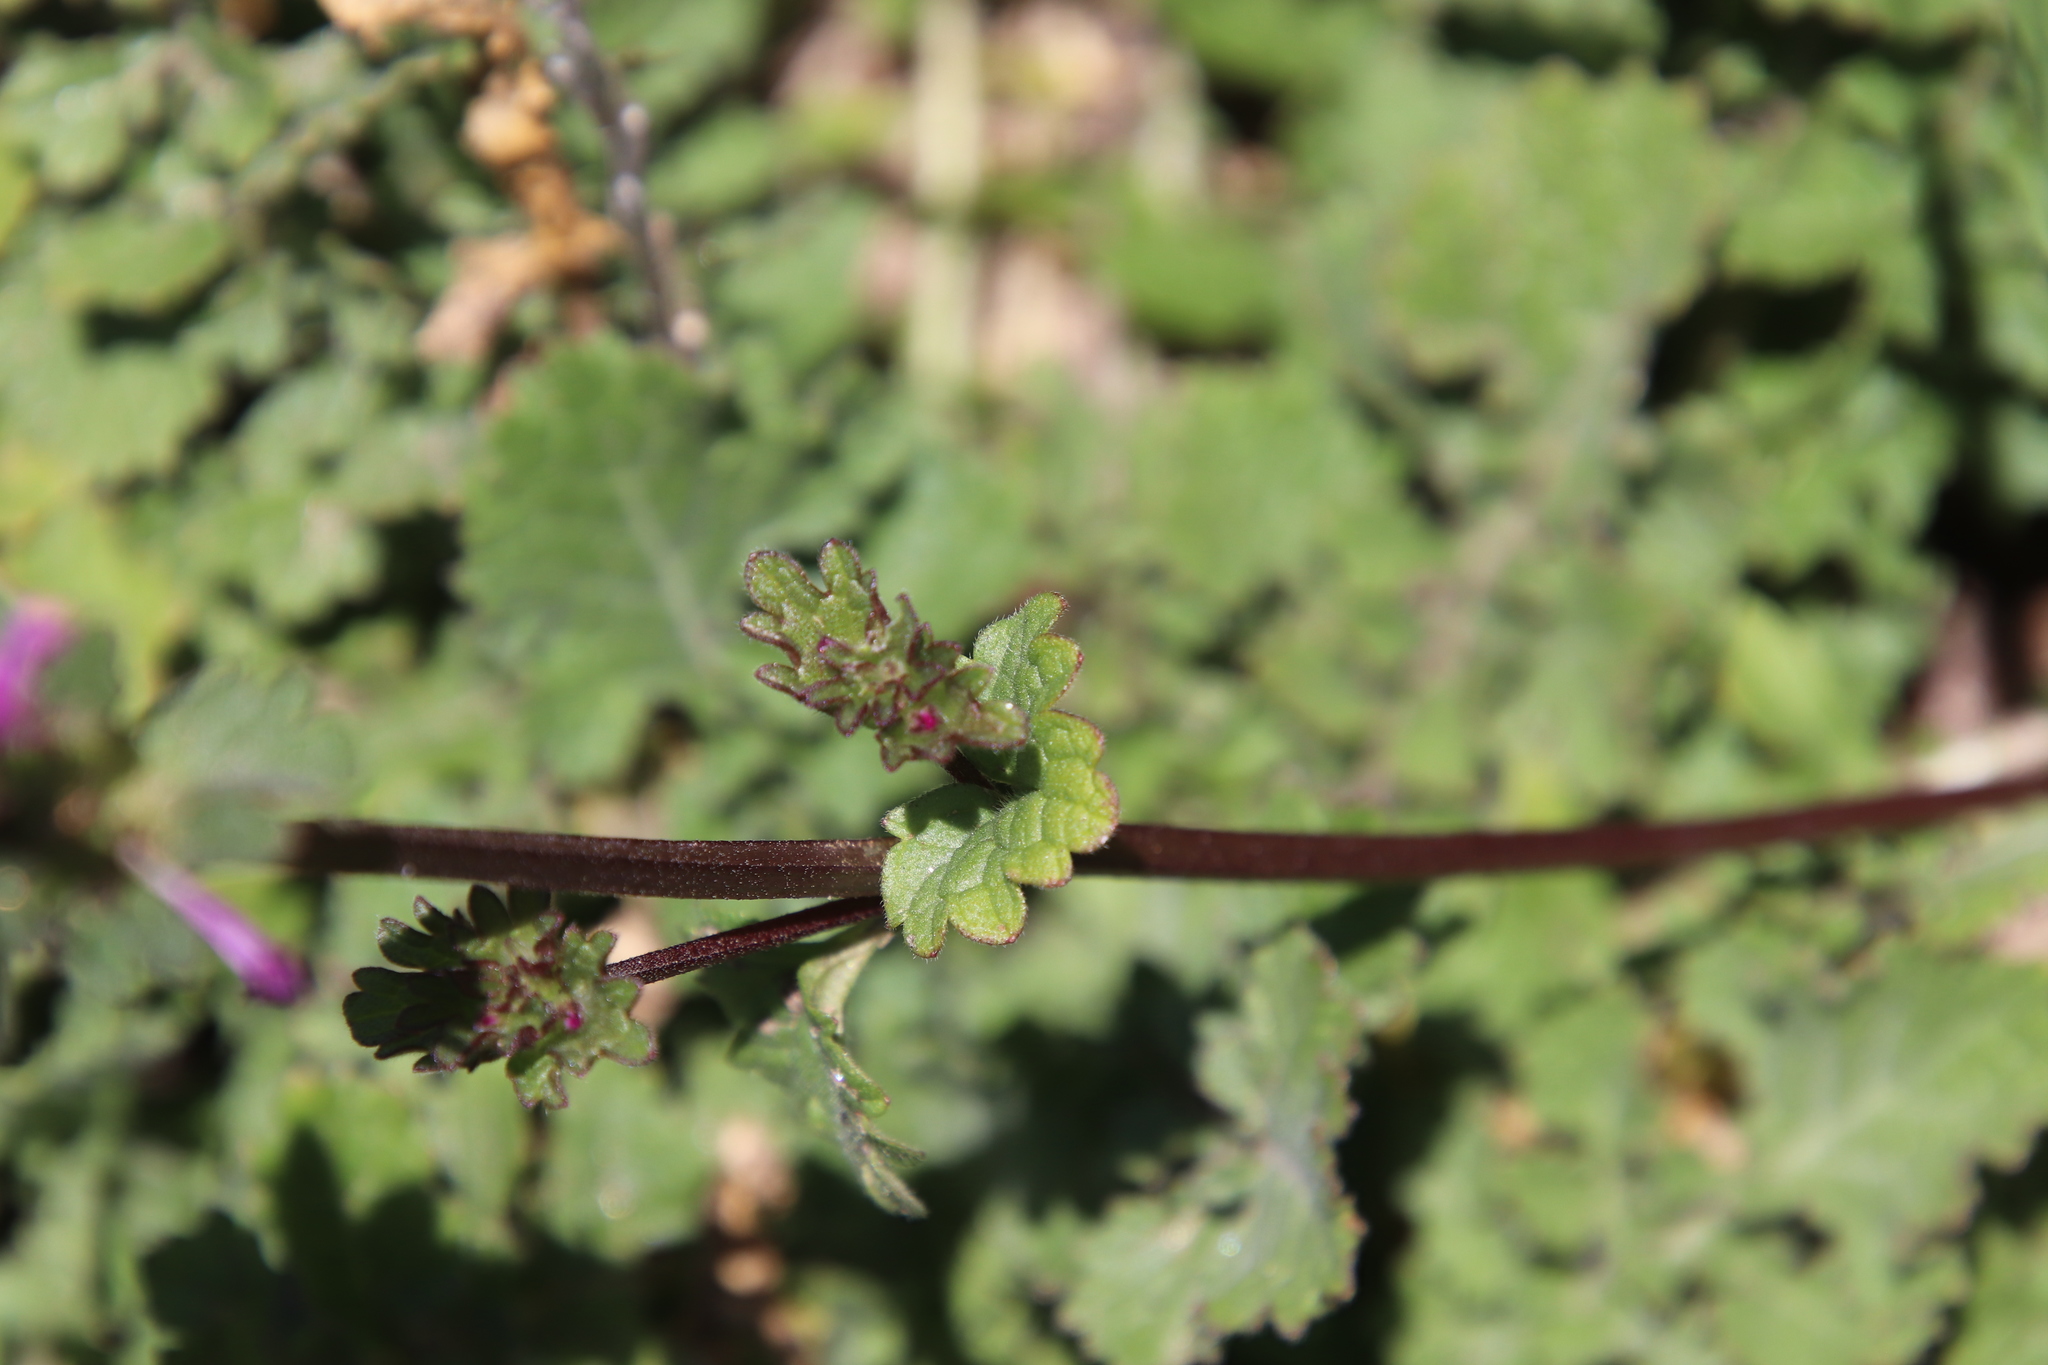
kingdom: Plantae
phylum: Tracheophyta
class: Magnoliopsida
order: Lamiales
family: Lamiaceae
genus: Lamium
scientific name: Lamium amplexicaule
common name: Henbit dead-nettle
